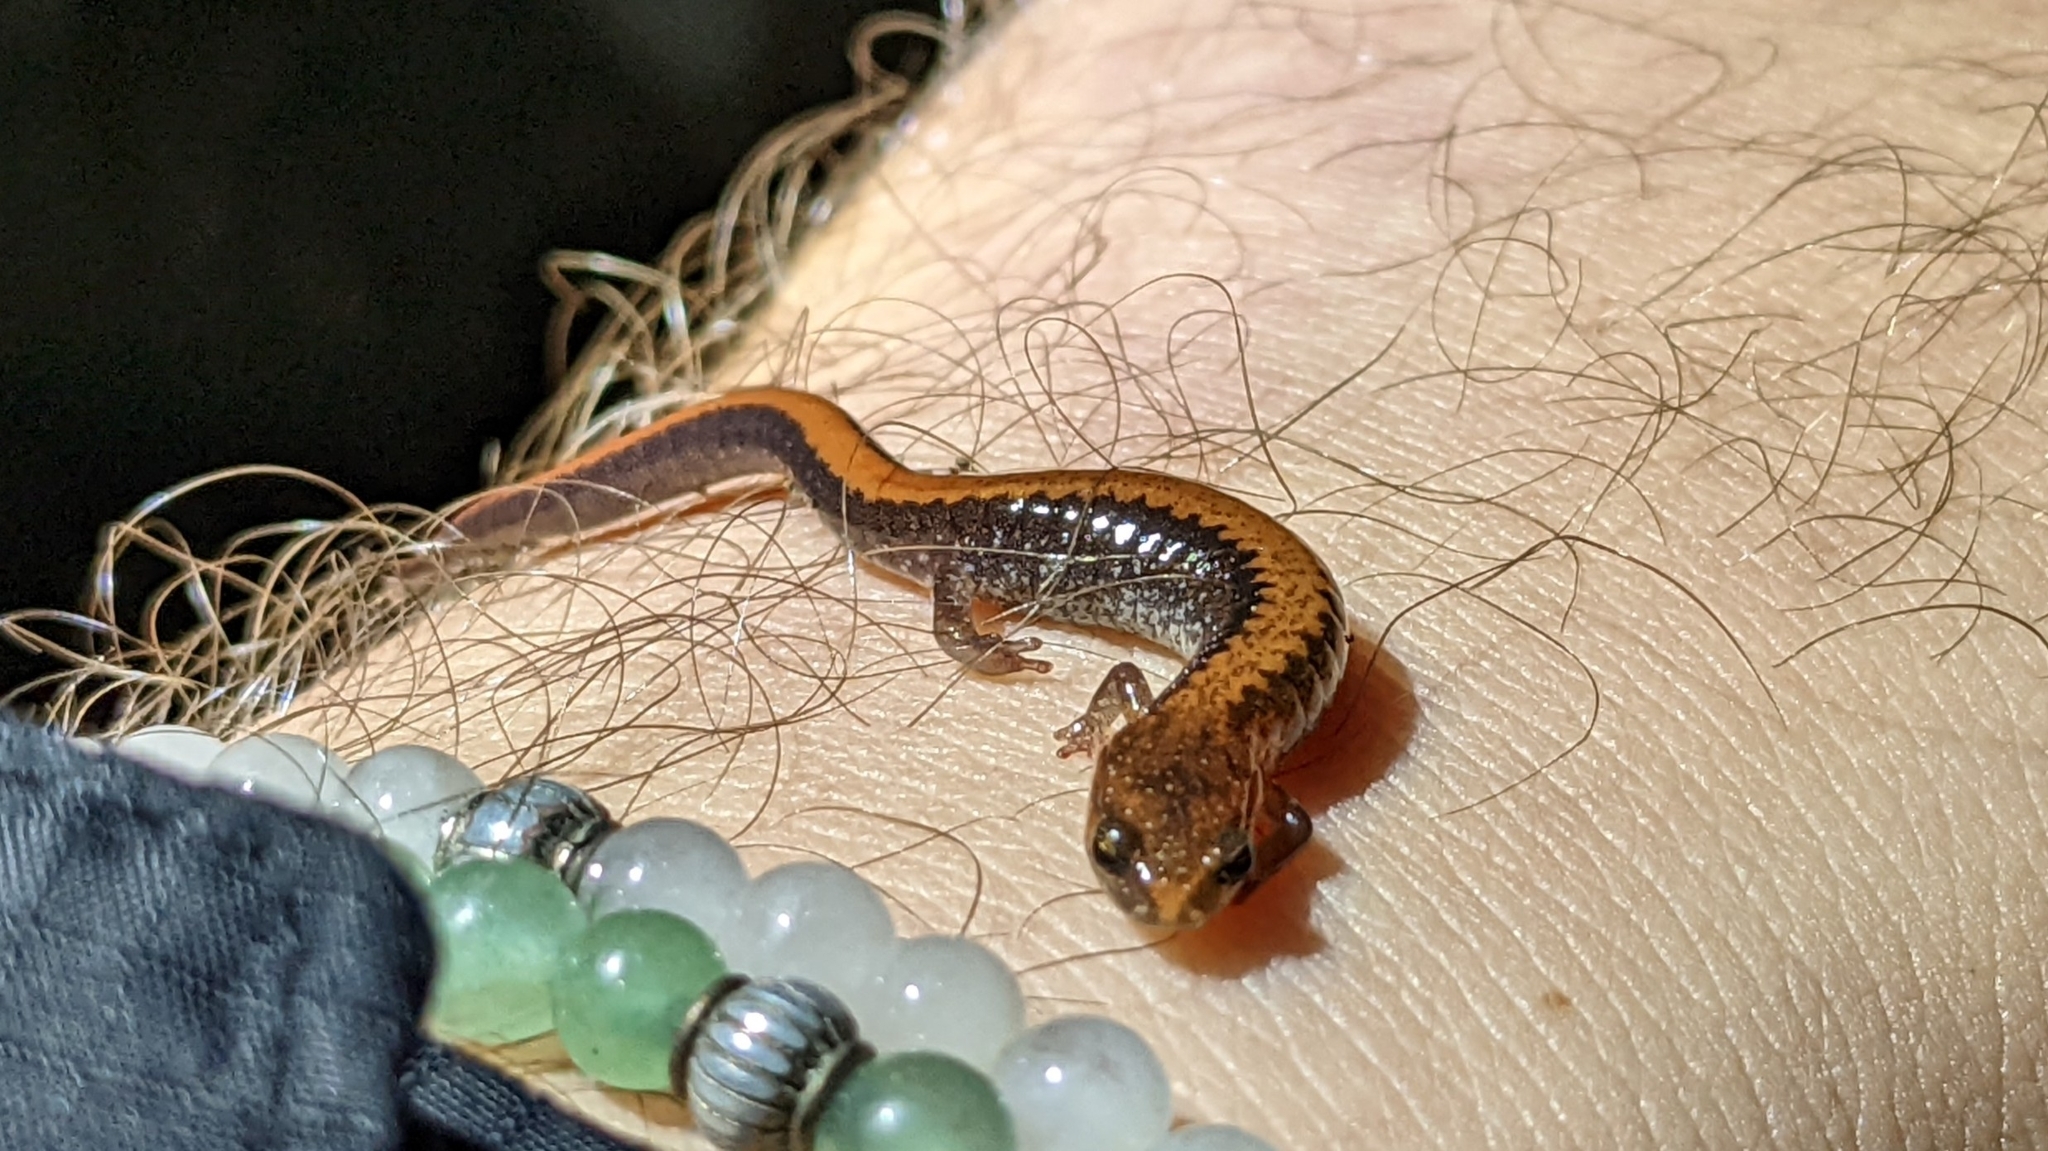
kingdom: Animalia
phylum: Chordata
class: Amphibia
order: Caudata
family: Plethodontidae
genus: Plethodon
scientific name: Plethodon serratus
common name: Southern red-backed salamander
